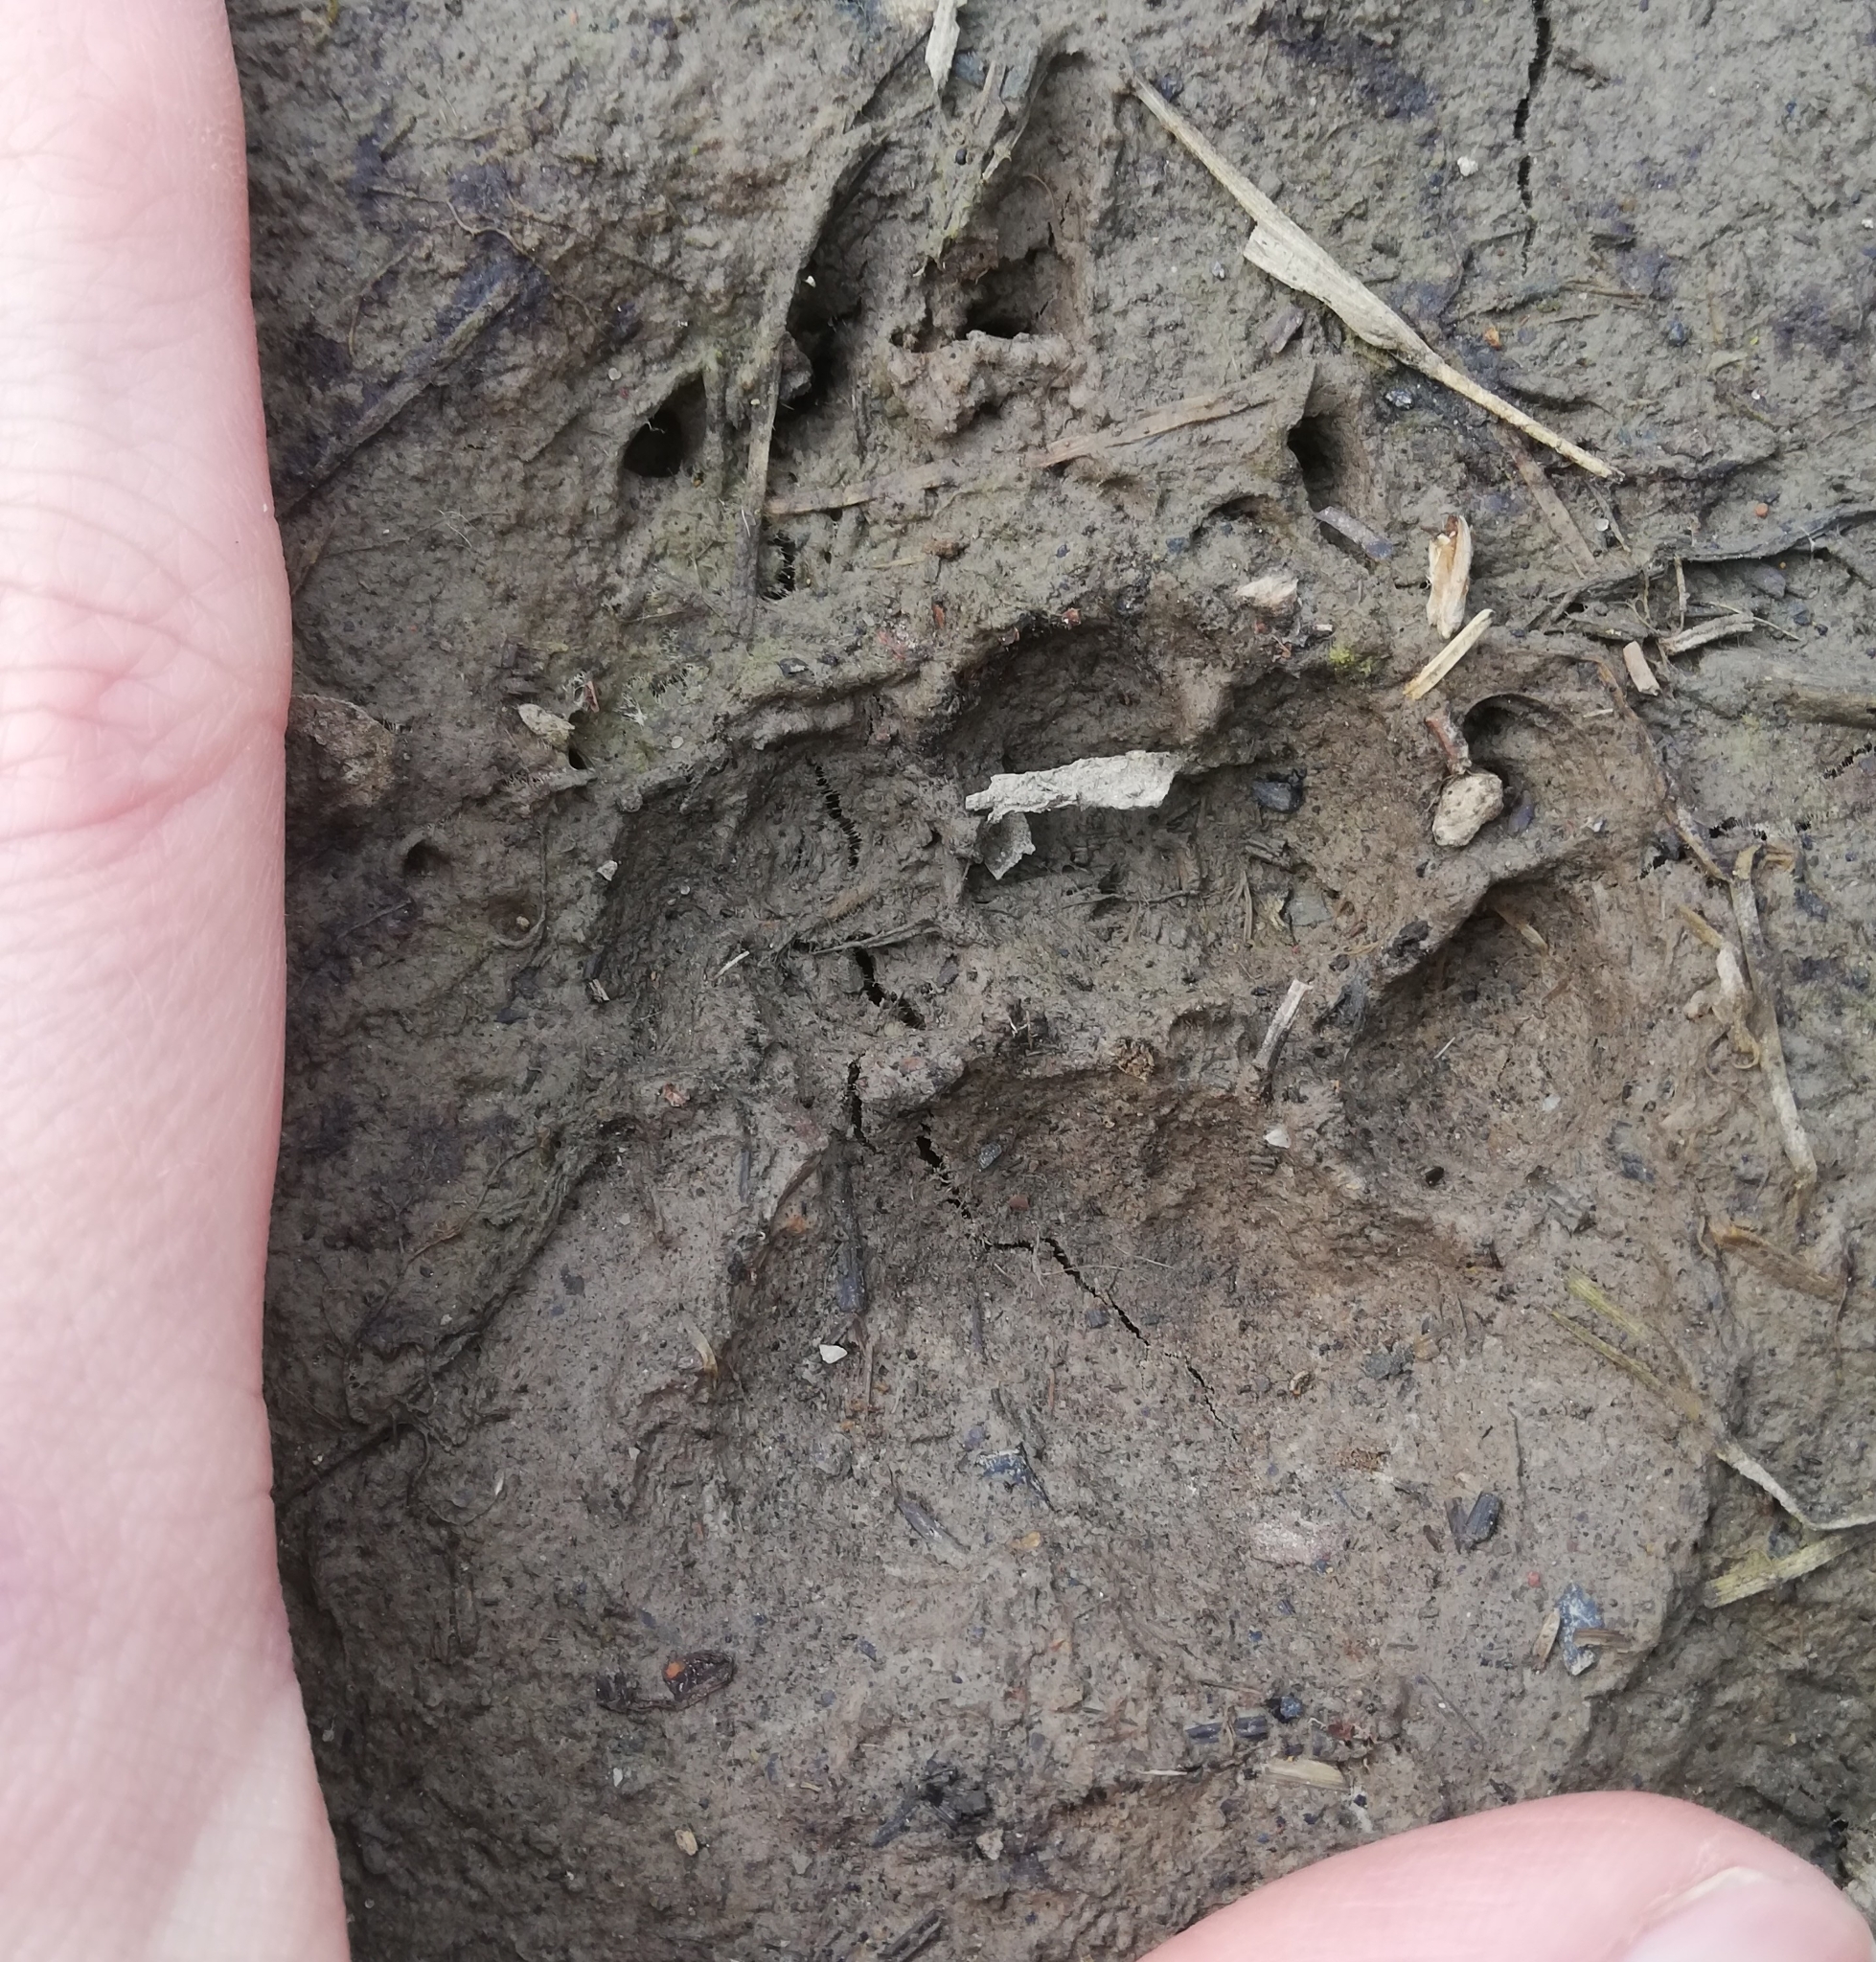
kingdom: Animalia
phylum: Chordata
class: Mammalia
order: Carnivora
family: Mustelidae
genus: Meles
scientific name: Meles meles
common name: Eurasian badger
